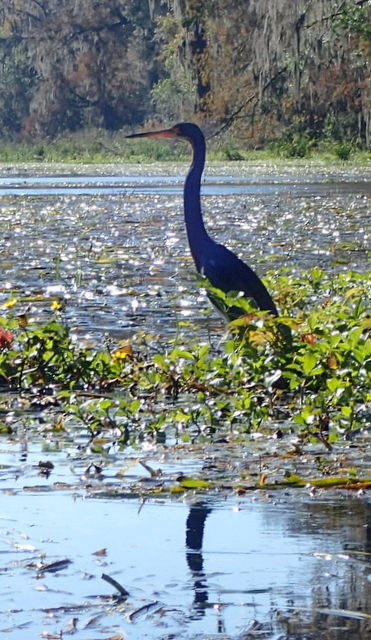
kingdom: Animalia
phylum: Chordata
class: Aves
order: Pelecaniformes
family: Ardeidae
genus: Egretta
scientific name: Egretta tricolor
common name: Tricolored heron
